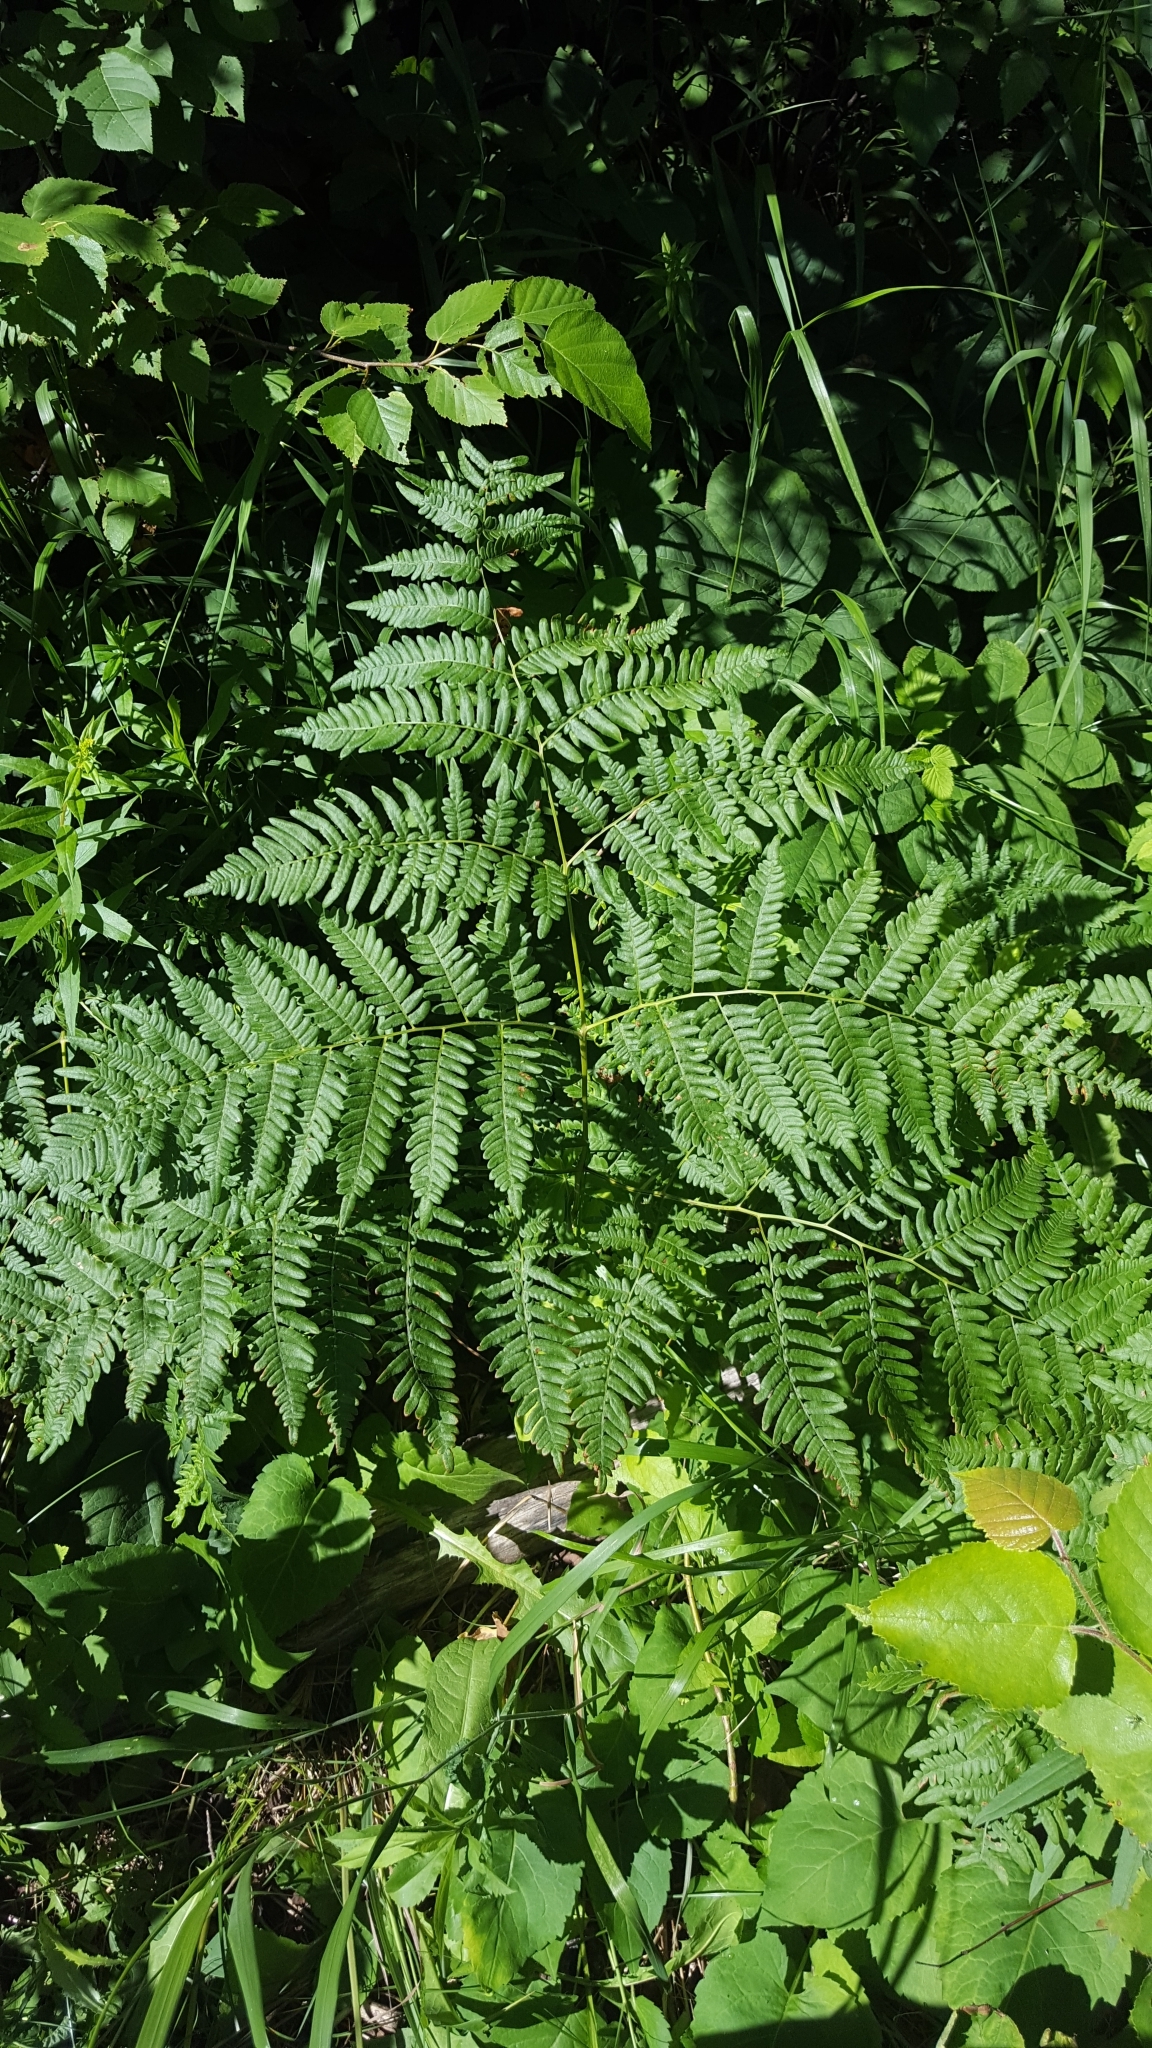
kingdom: Plantae
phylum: Tracheophyta
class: Polypodiopsida
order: Polypodiales
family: Dennstaedtiaceae
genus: Pteridium
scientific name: Pteridium aquilinum
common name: Bracken
